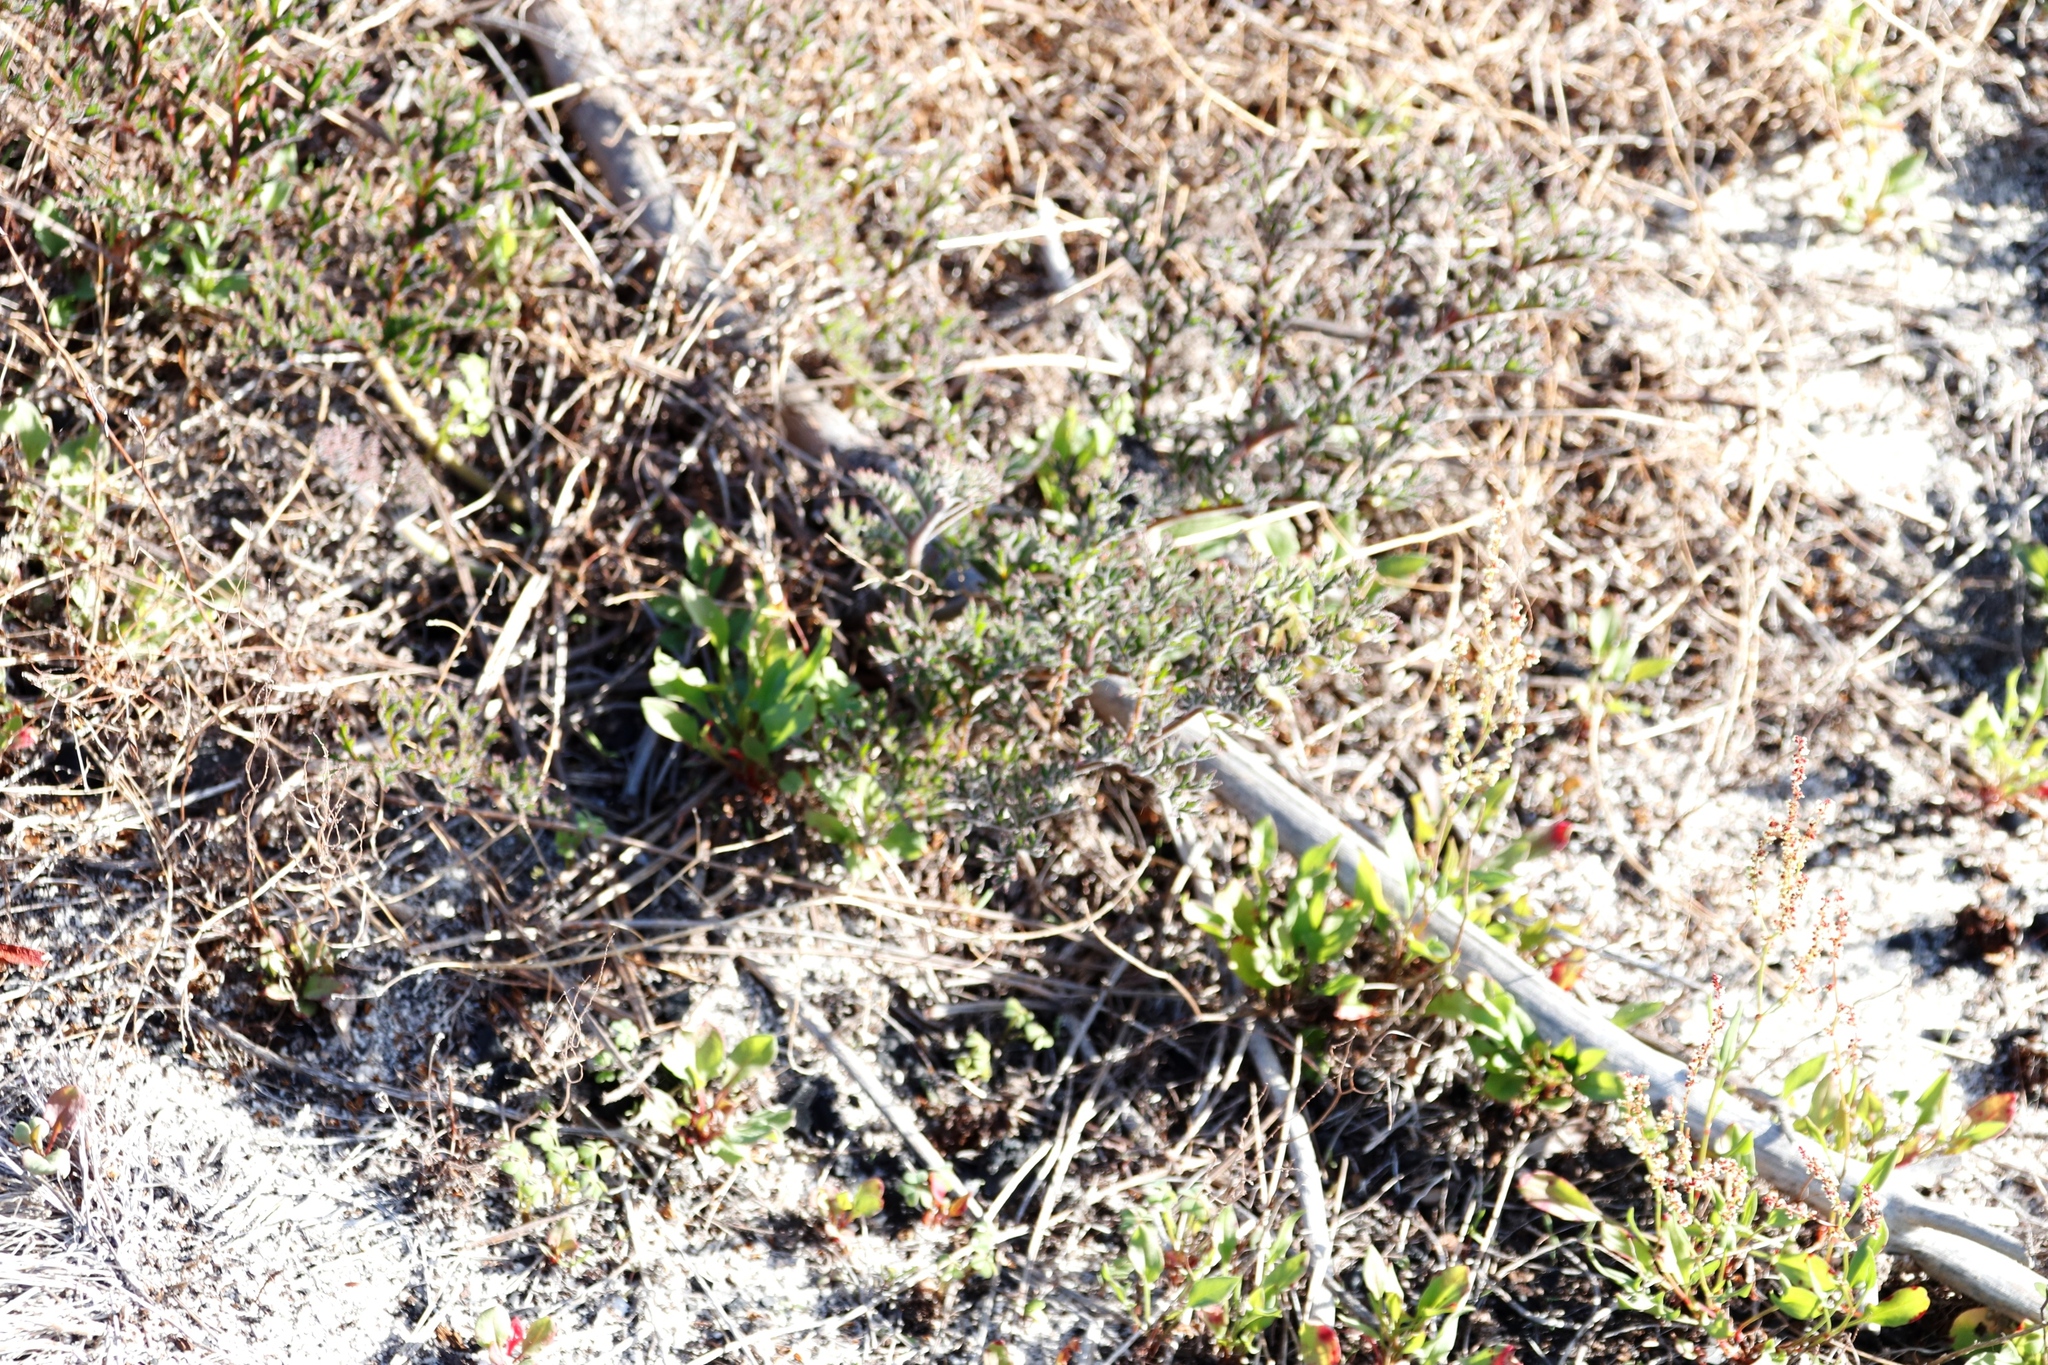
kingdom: Plantae
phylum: Tracheophyta
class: Magnoliopsida
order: Geraniales
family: Geraniaceae
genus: Pelargonium
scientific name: Pelargonium triste
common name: Night-scent pelargonium
